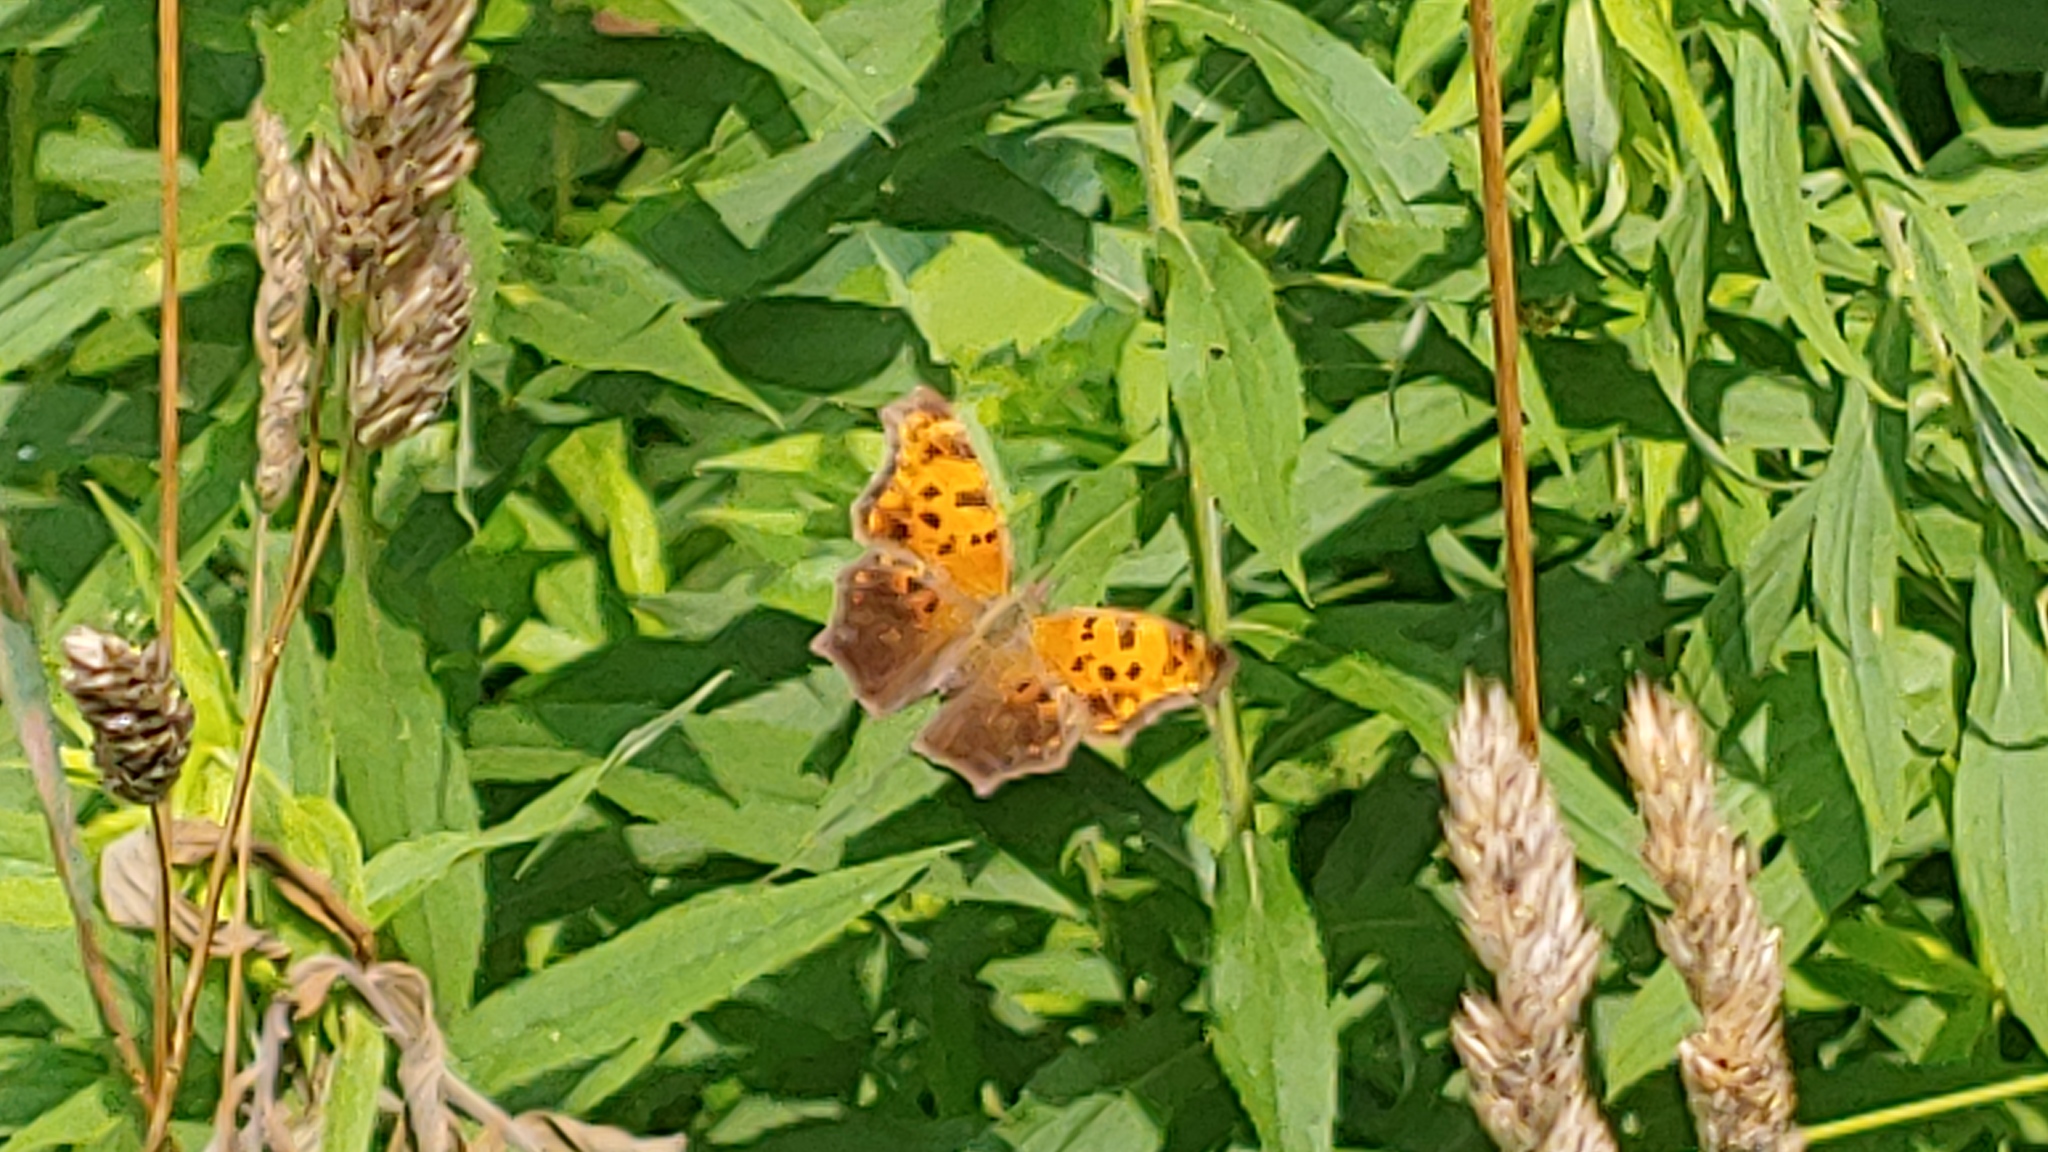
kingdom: Animalia
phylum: Arthropoda
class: Insecta
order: Lepidoptera
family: Nymphalidae
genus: Polygonia
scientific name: Polygonia comma
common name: Eastern comma
